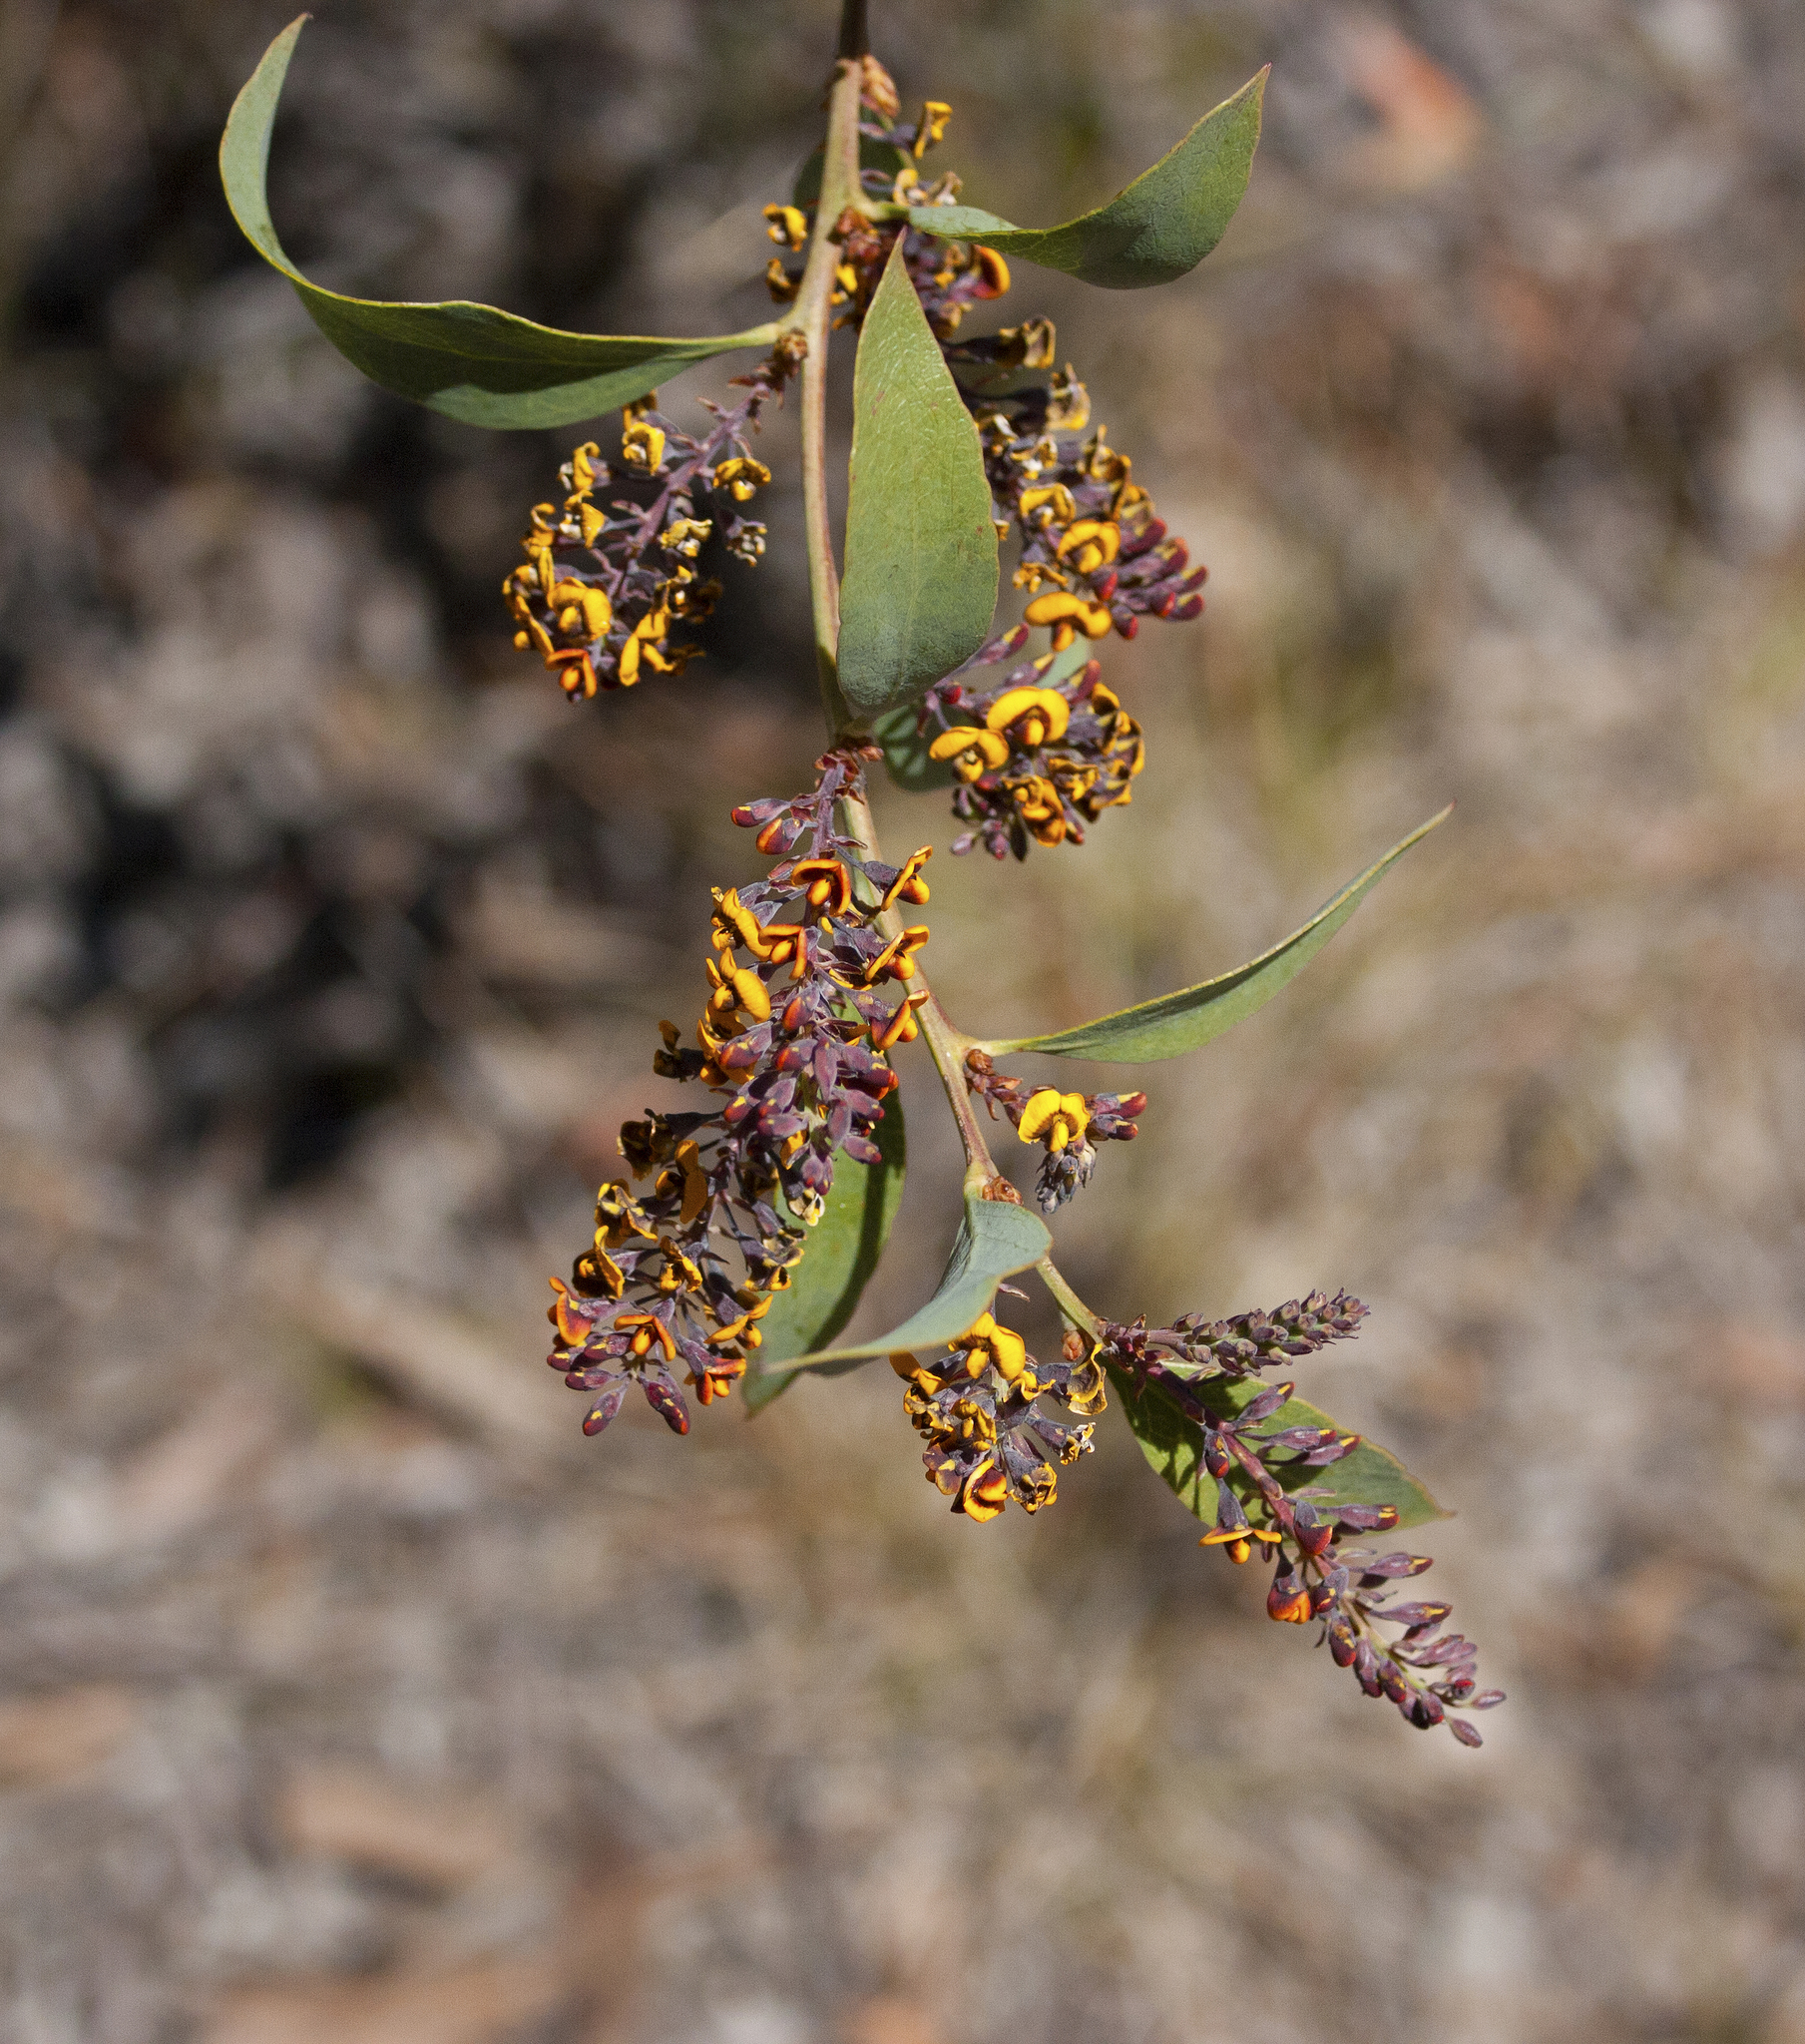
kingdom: Plantae
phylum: Tracheophyta
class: Magnoliopsida
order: Fabales
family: Fabaceae
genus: Daviesia
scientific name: Daviesia latifolia
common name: Hop bitter-pea
